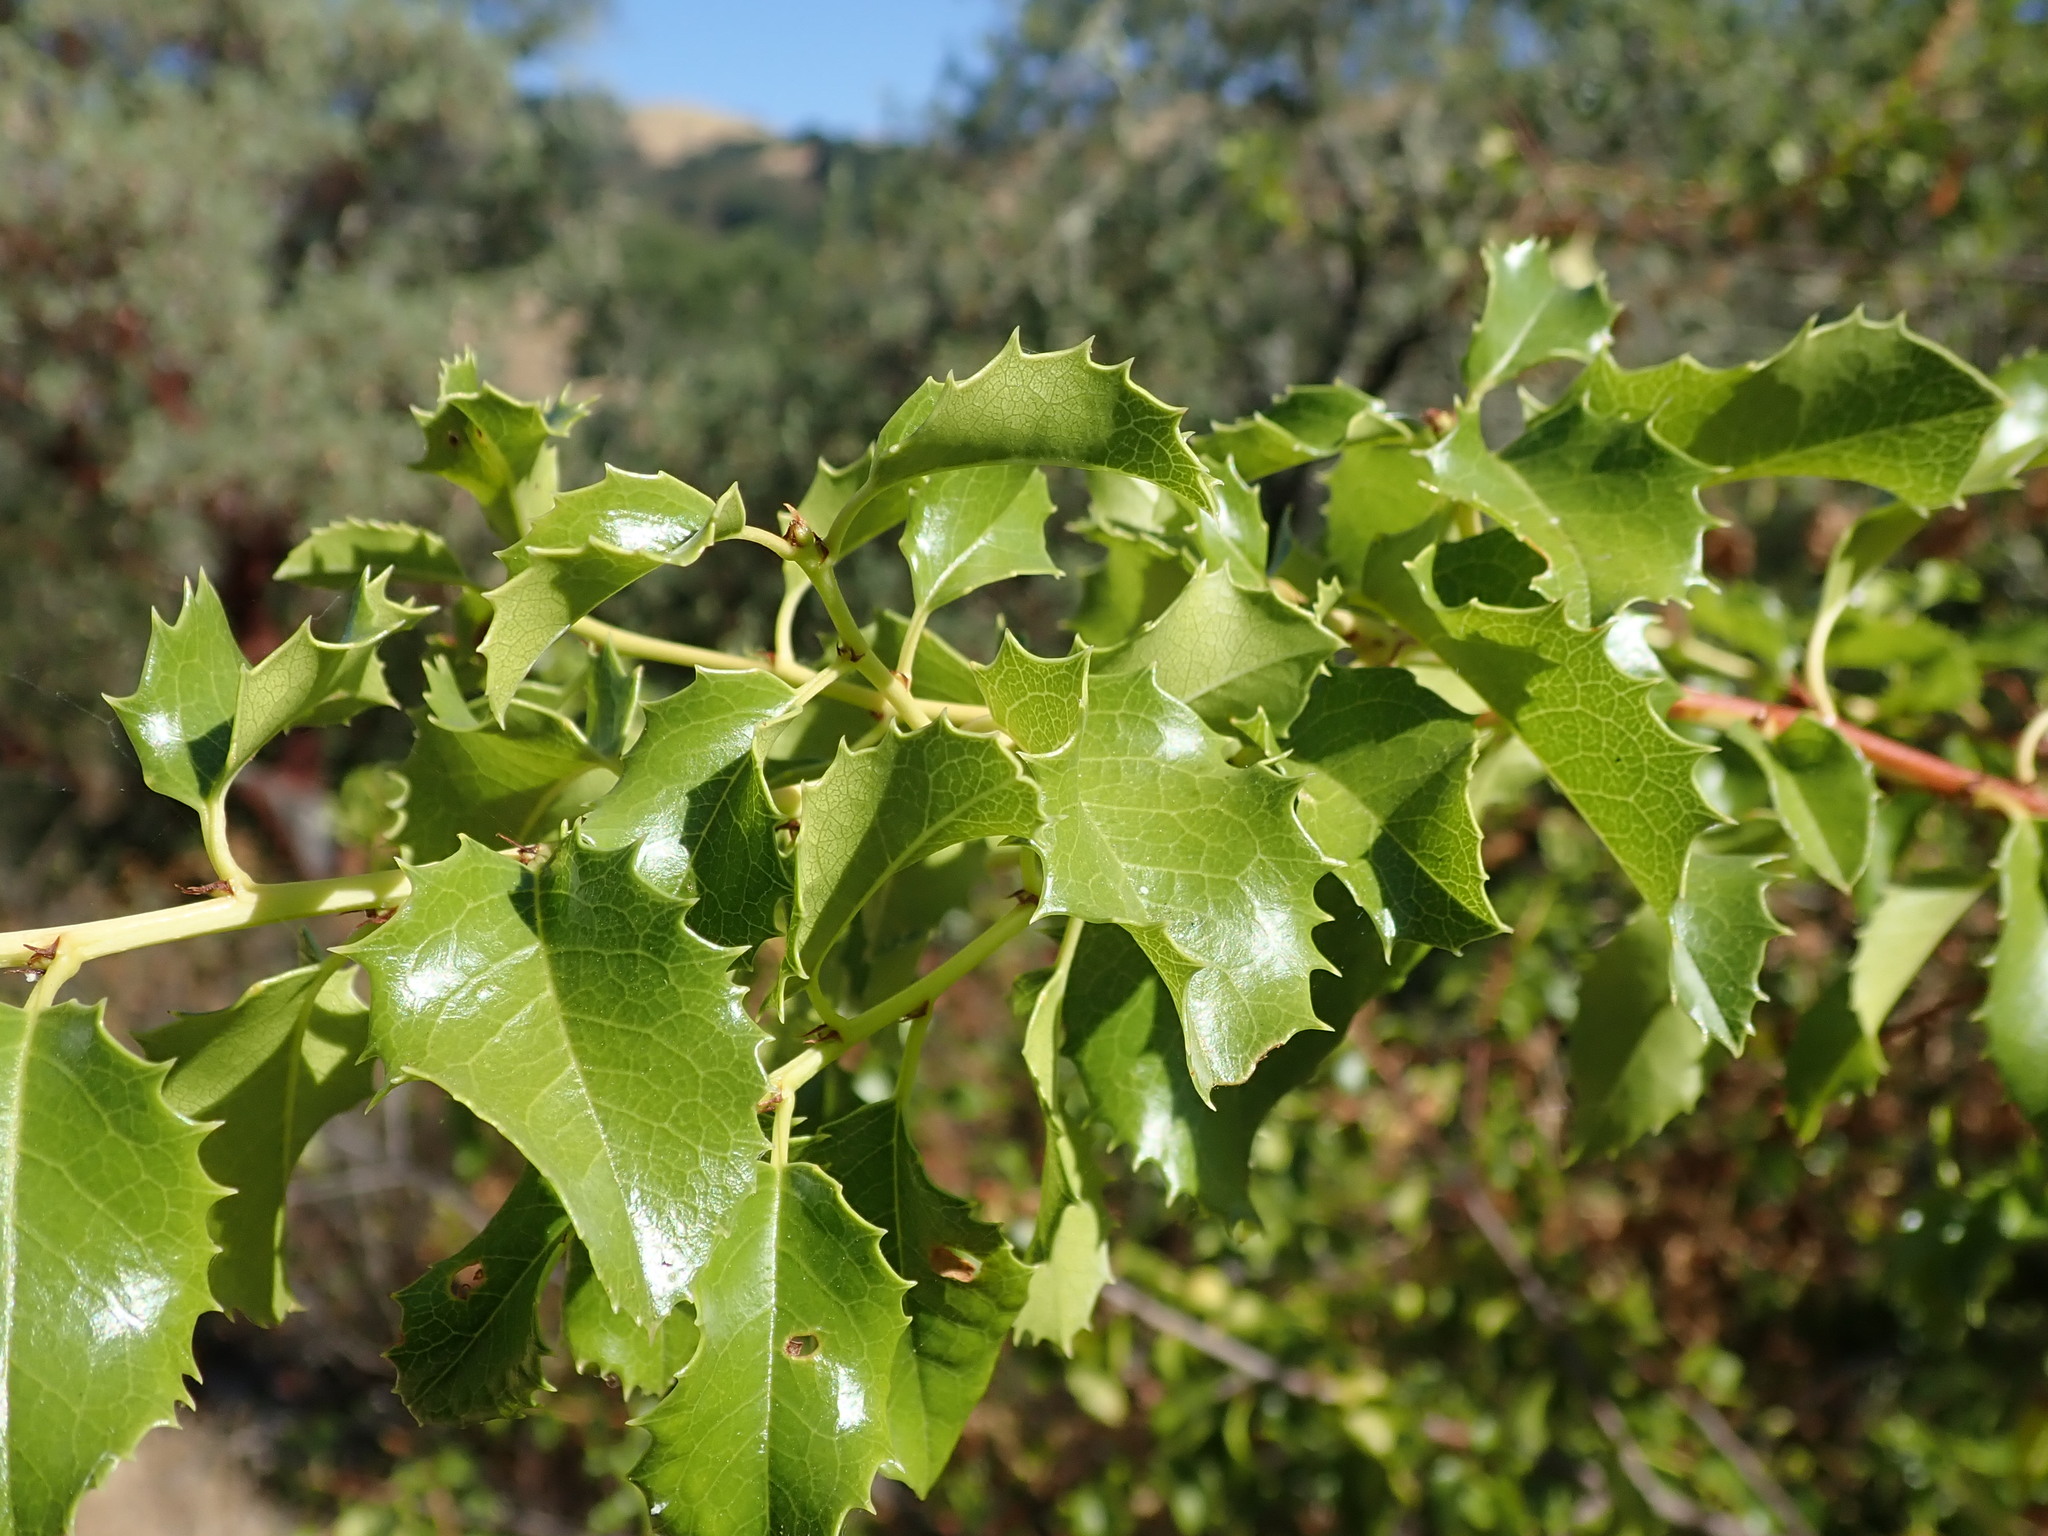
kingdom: Plantae
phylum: Tracheophyta
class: Magnoliopsida
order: Rosales
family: Rosaceae
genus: Prunus
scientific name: Prunus ilicifolia
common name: Hollyleaf cherry
